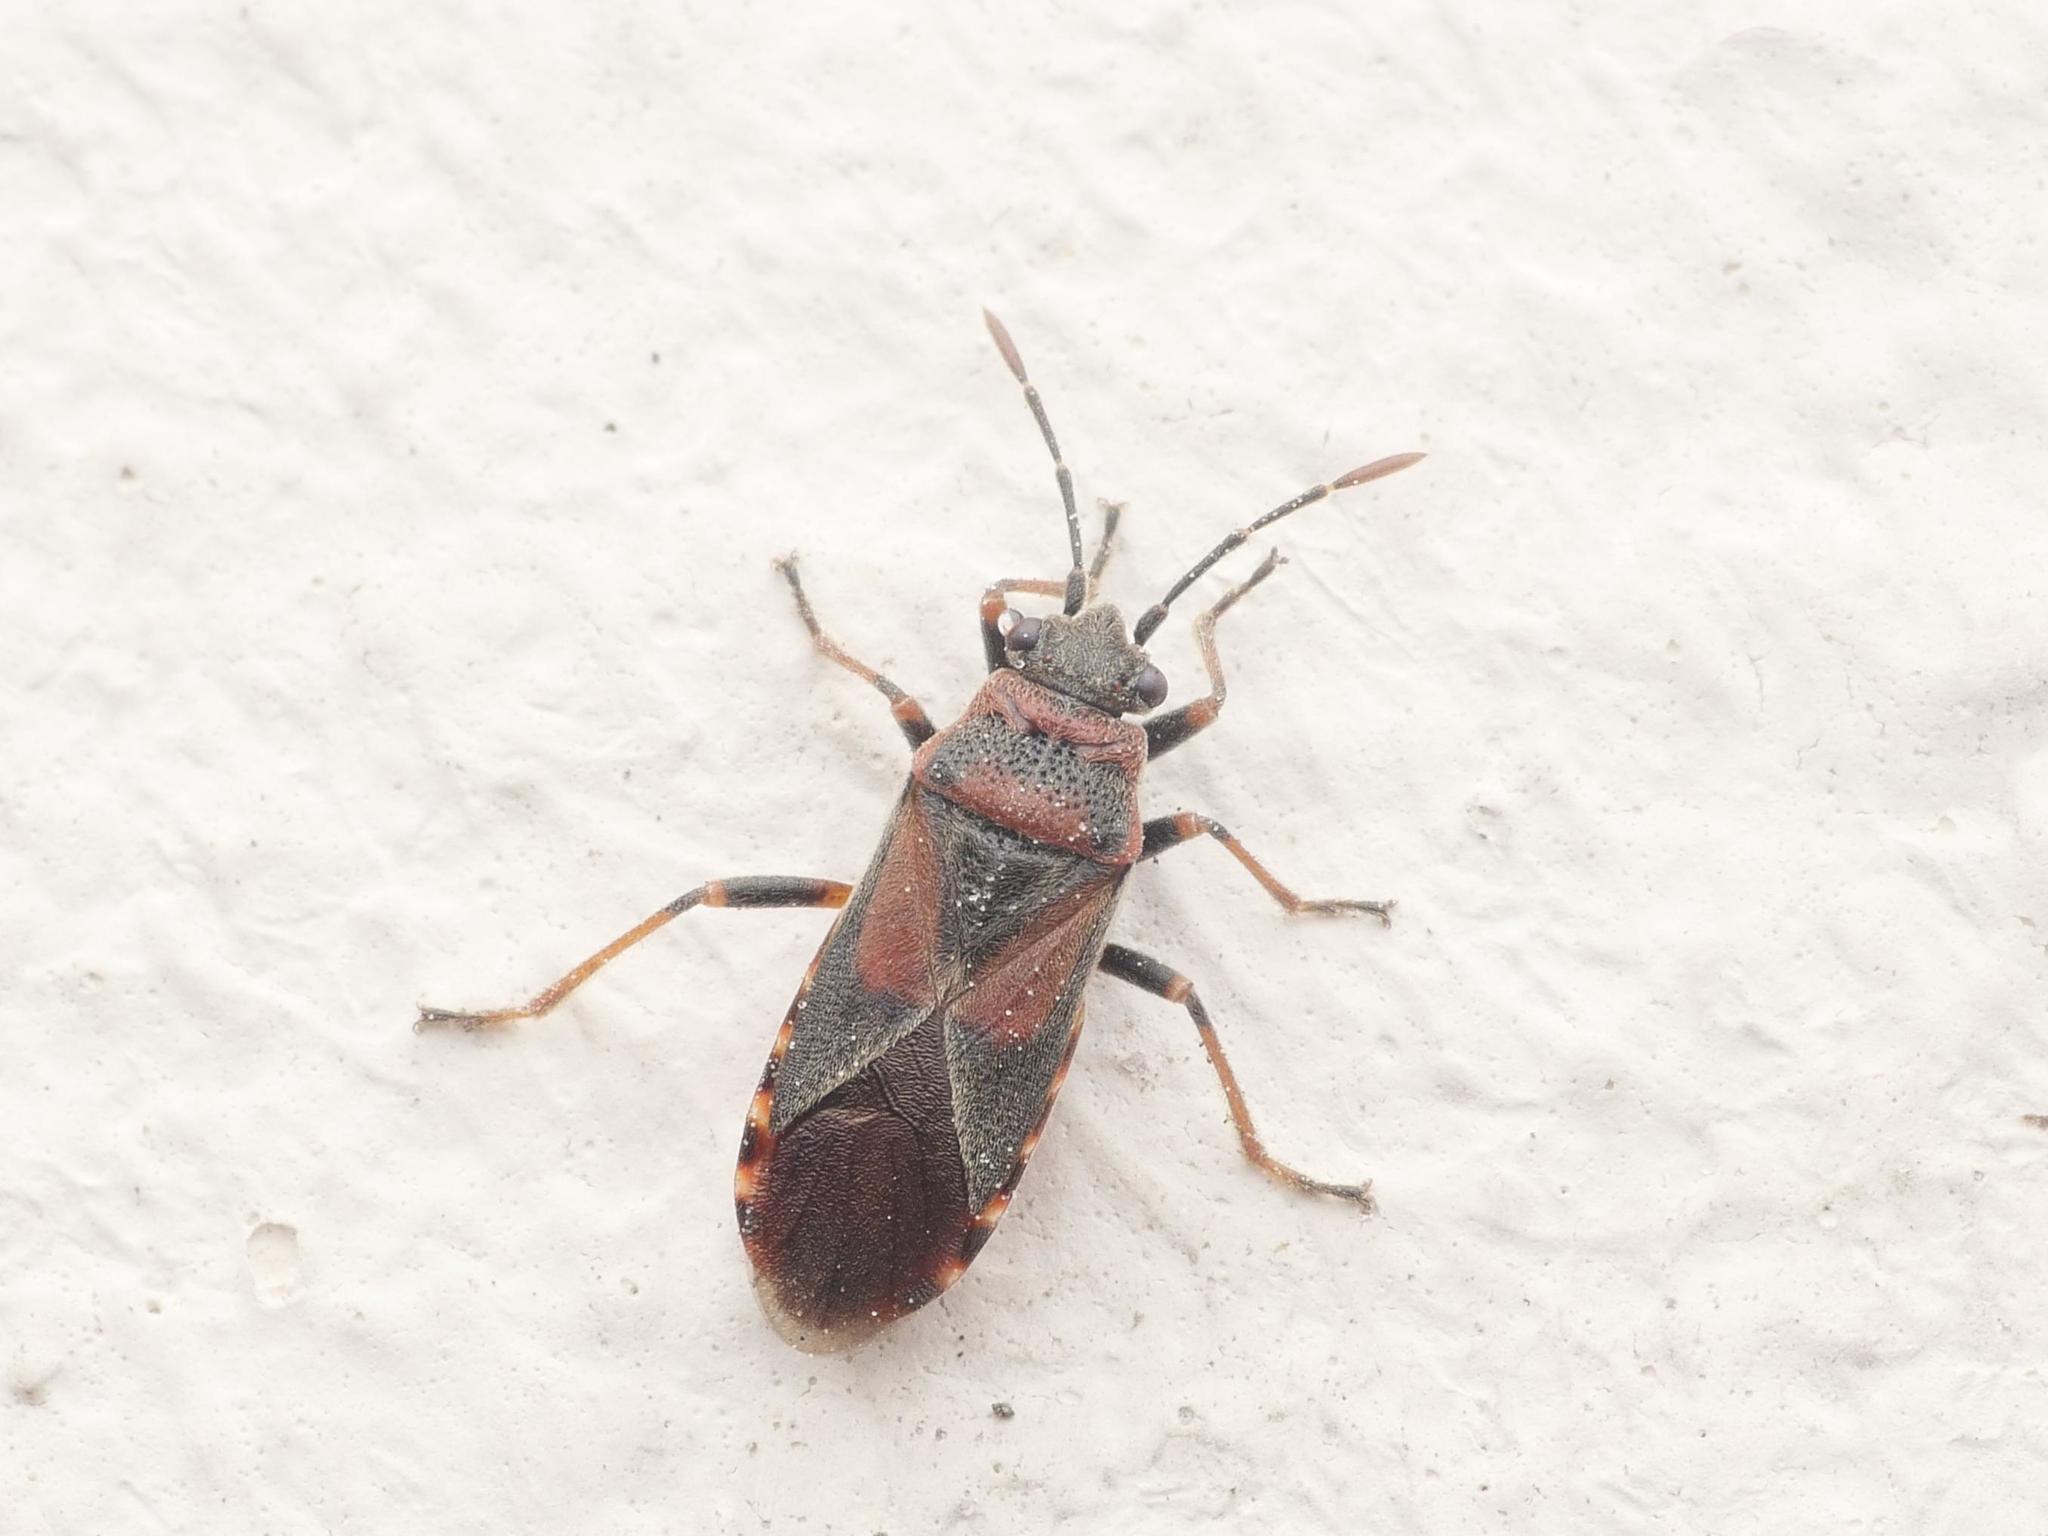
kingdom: Animalia
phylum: Arthropoda
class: Insecta
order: Hemiptera
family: Lygaeidae
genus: Arocatus
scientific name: Arocatus melanocephalus
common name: Lygaeid bug
